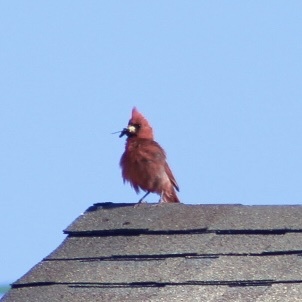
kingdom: Animalia
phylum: Chordata
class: Aves
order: Passeriformes
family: Cardinalidae
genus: Cardinalis
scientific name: Cardinalis cardinalis
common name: Northern cardinal
